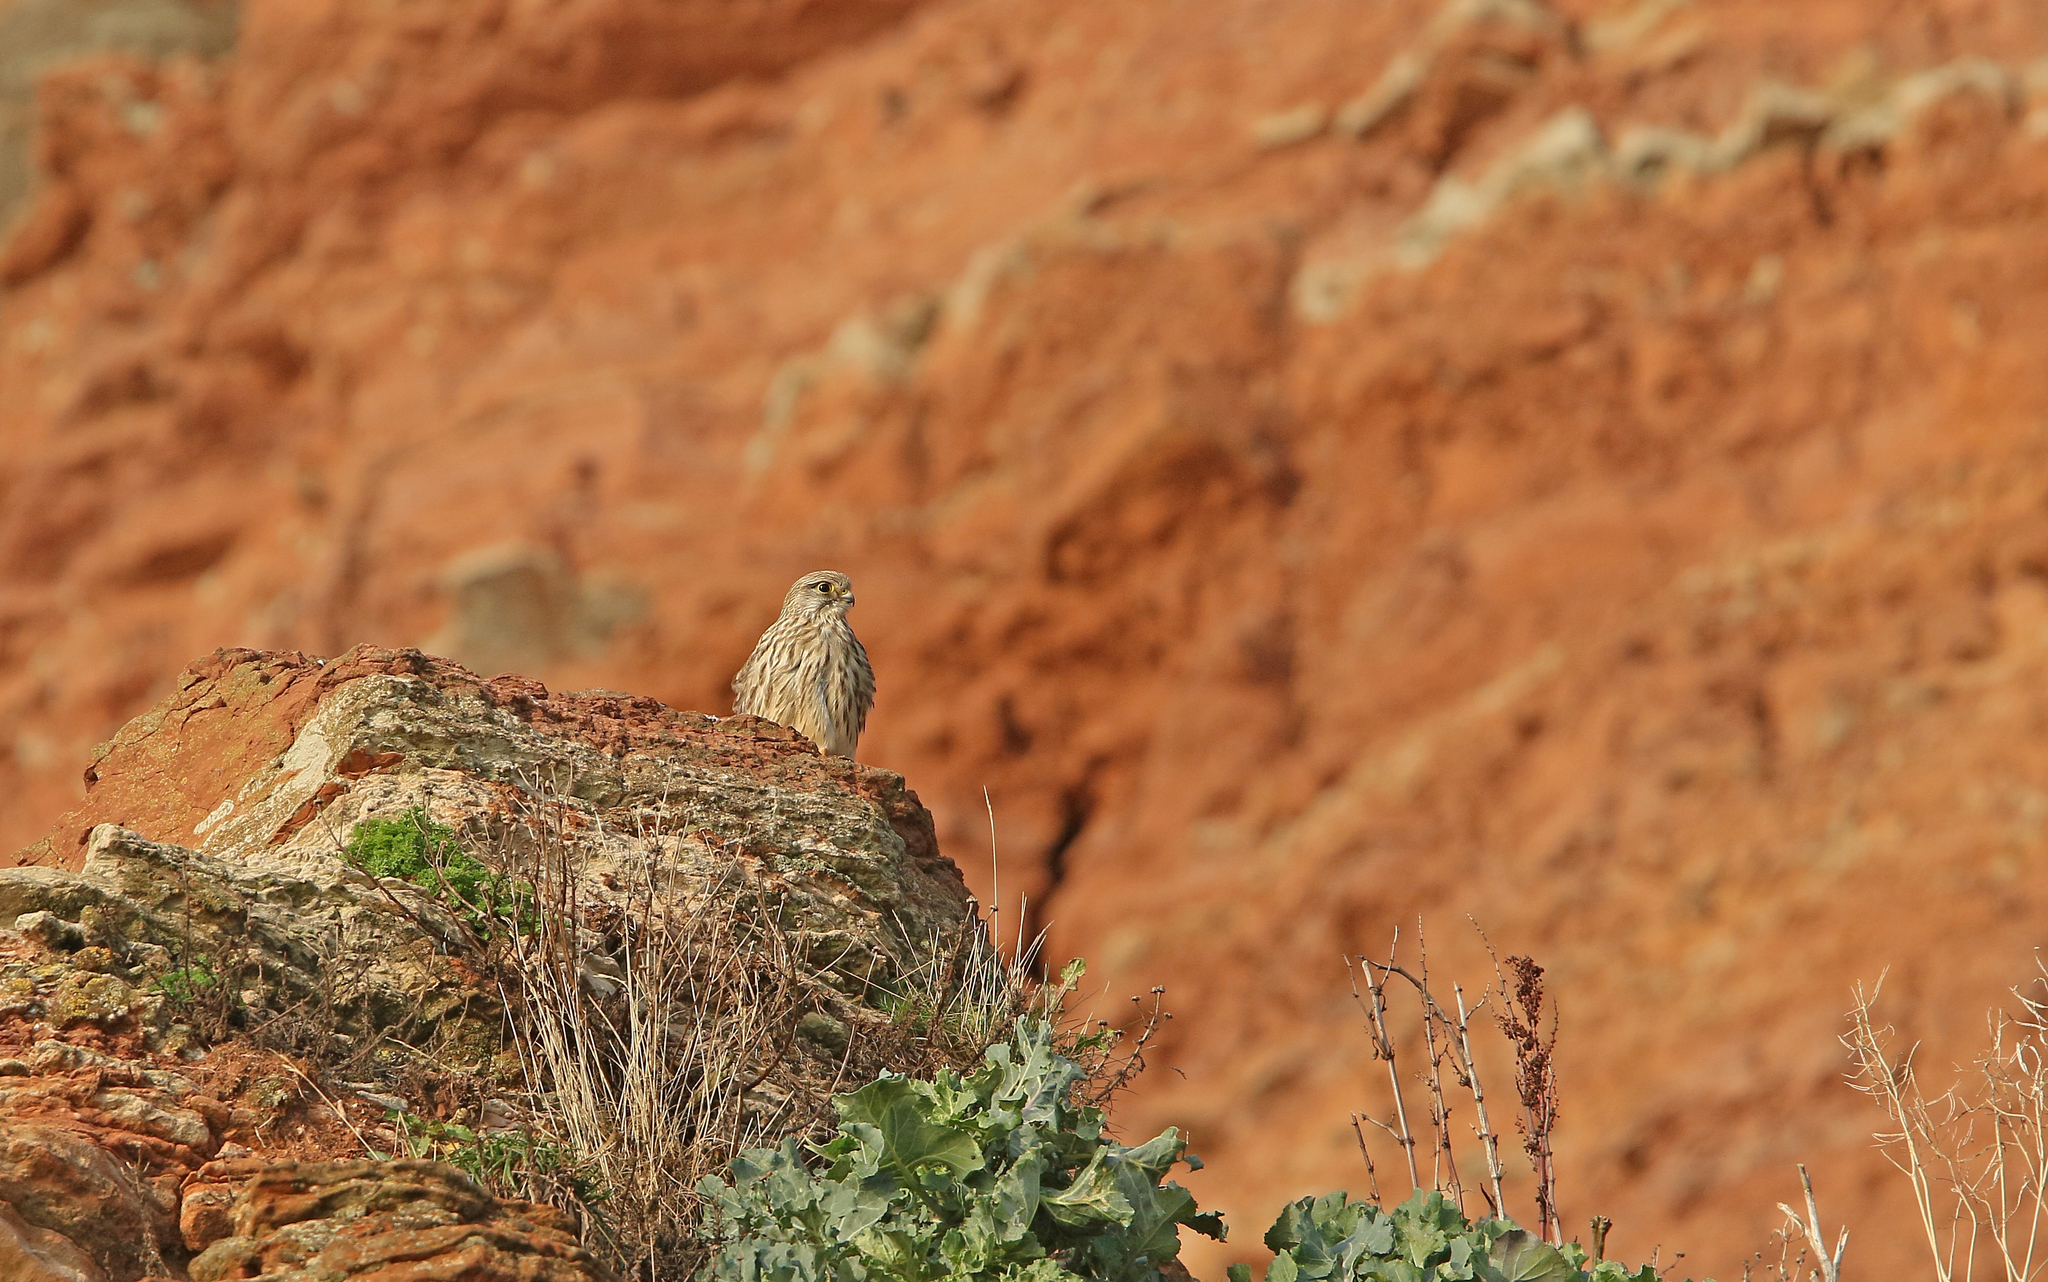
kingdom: Animalia
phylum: Chordata
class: Aves
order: Falconiformes
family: Falconidae
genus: Falco
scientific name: Falco tinnunculus
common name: Common kestrel
